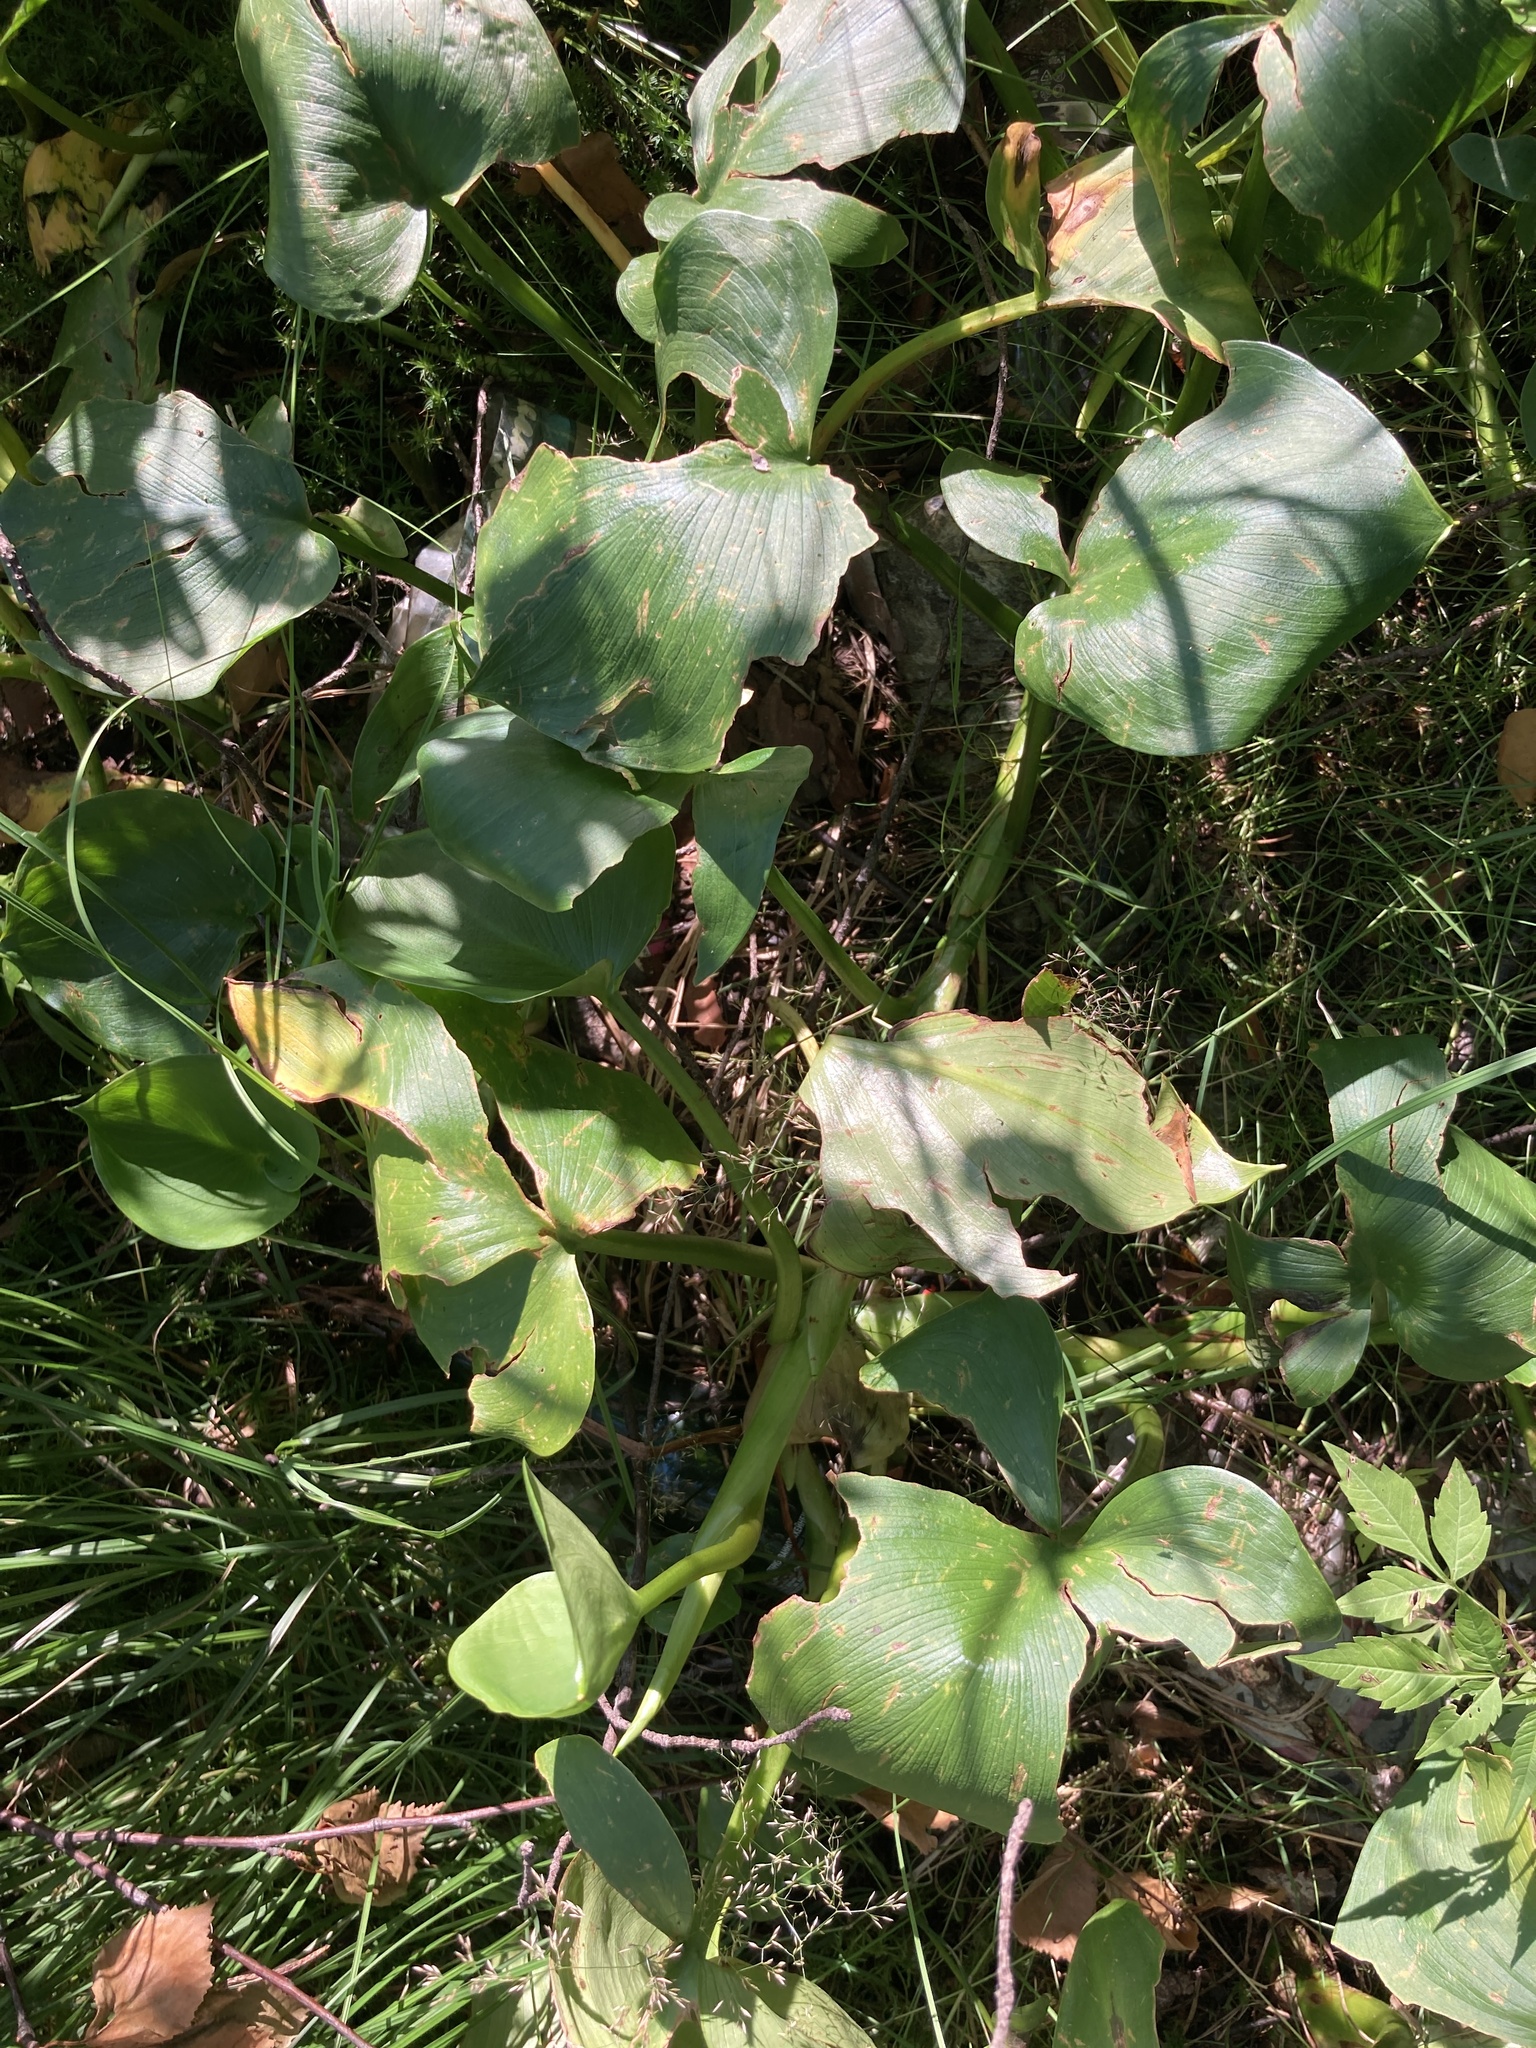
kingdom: Plantae
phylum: Tracheophyta
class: Liliopsida
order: Alismatales
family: Araceae
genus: Calla
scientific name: Calla palustris
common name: Bog arum
